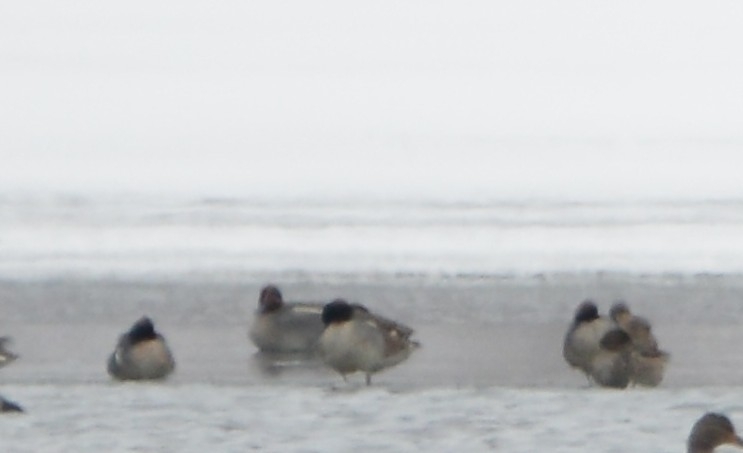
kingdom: Animalia
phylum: Chordata
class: Aves
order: Anseriformes
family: Anatidae
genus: Anas
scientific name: Anas crecca
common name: Eurasian teal
